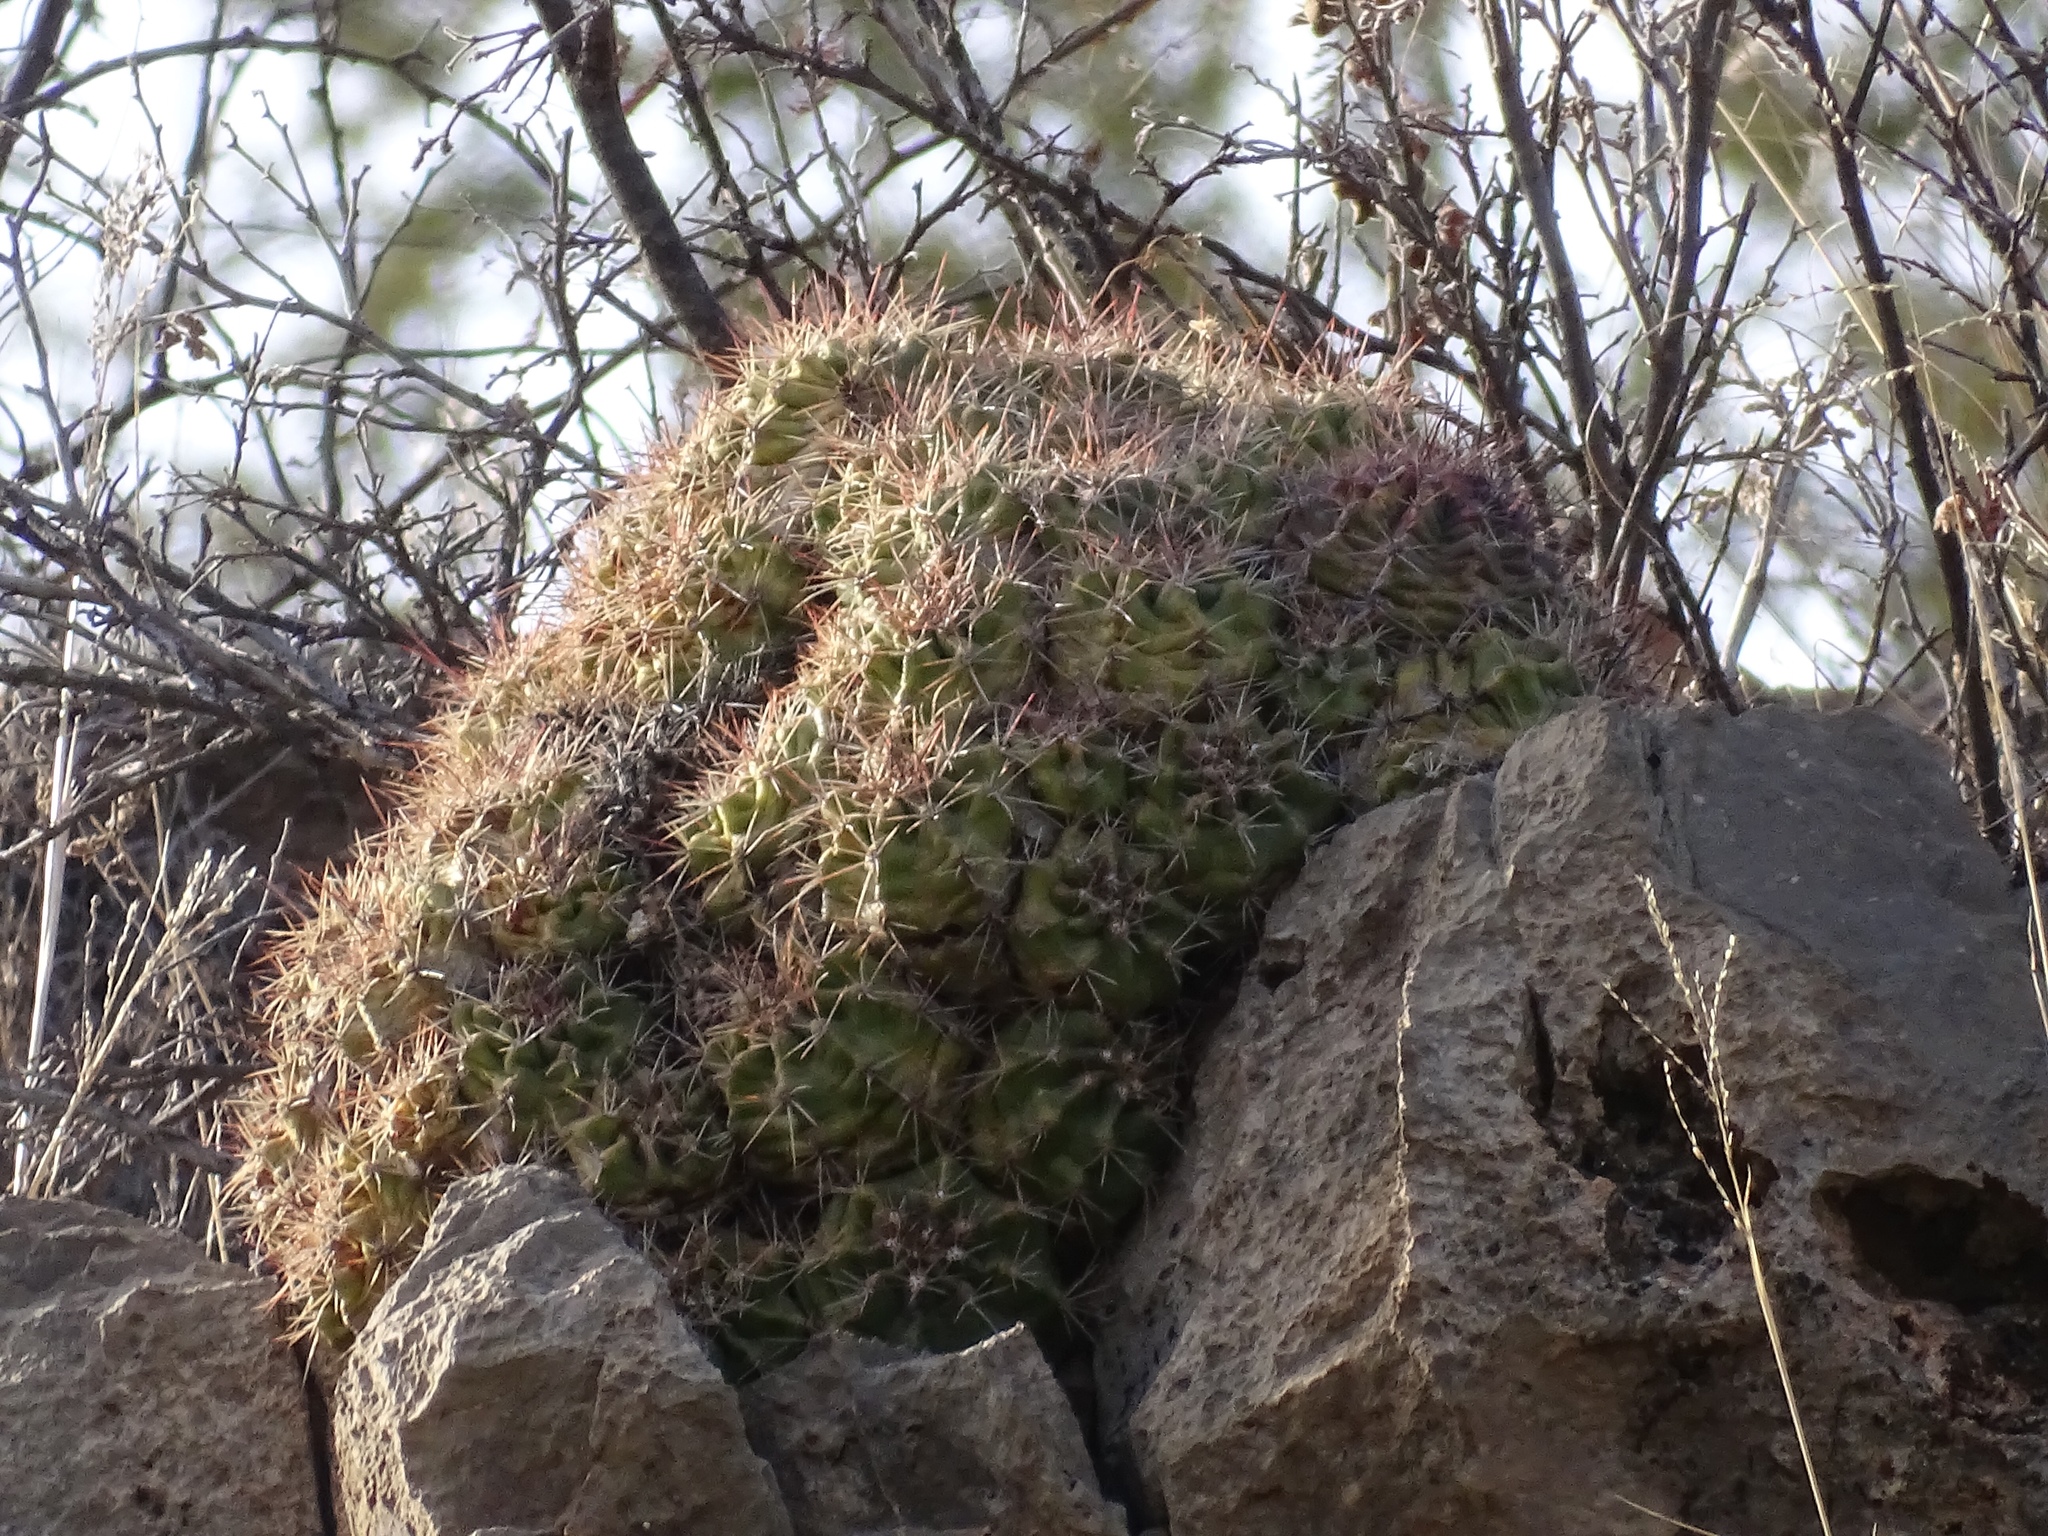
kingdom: Plantae
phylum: Tracheophyta
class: Magnoliopsida
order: Caryophyllales
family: Cactaceae
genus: Echinocereus
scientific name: Echinocereus coccineus
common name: Scarlet hedgehog cactus
